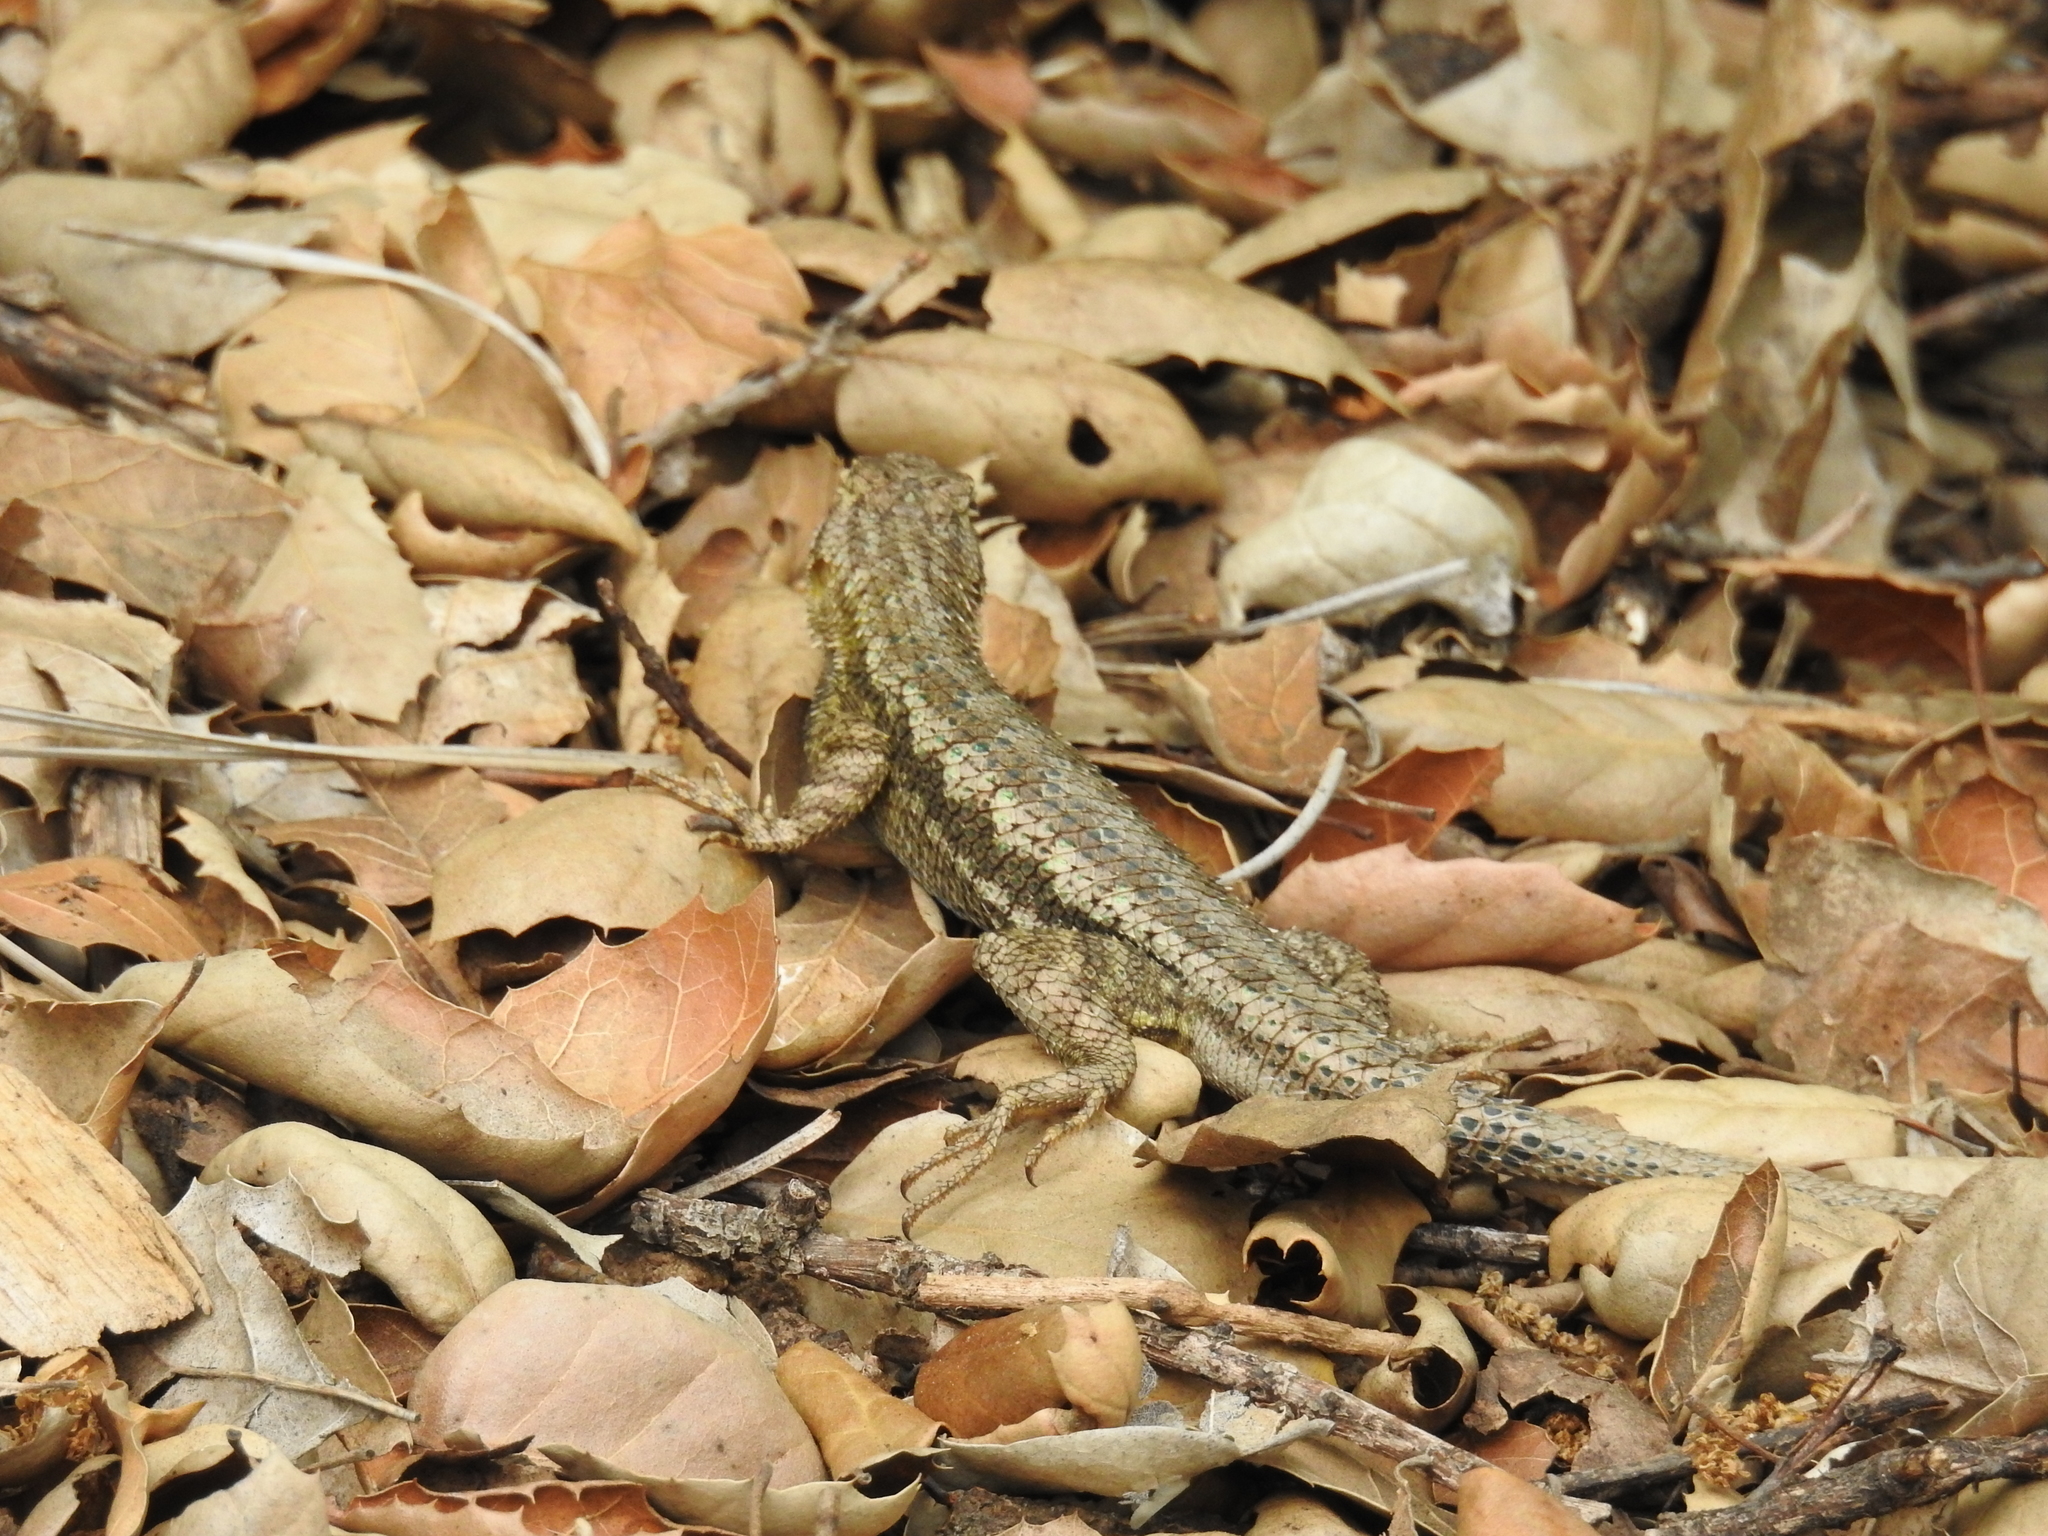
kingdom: Animalia
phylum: Chordata
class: Squamata
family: Phrynosomatidae
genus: Sceloporus
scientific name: Sceloporus occidentalis
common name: Western fence lizard
